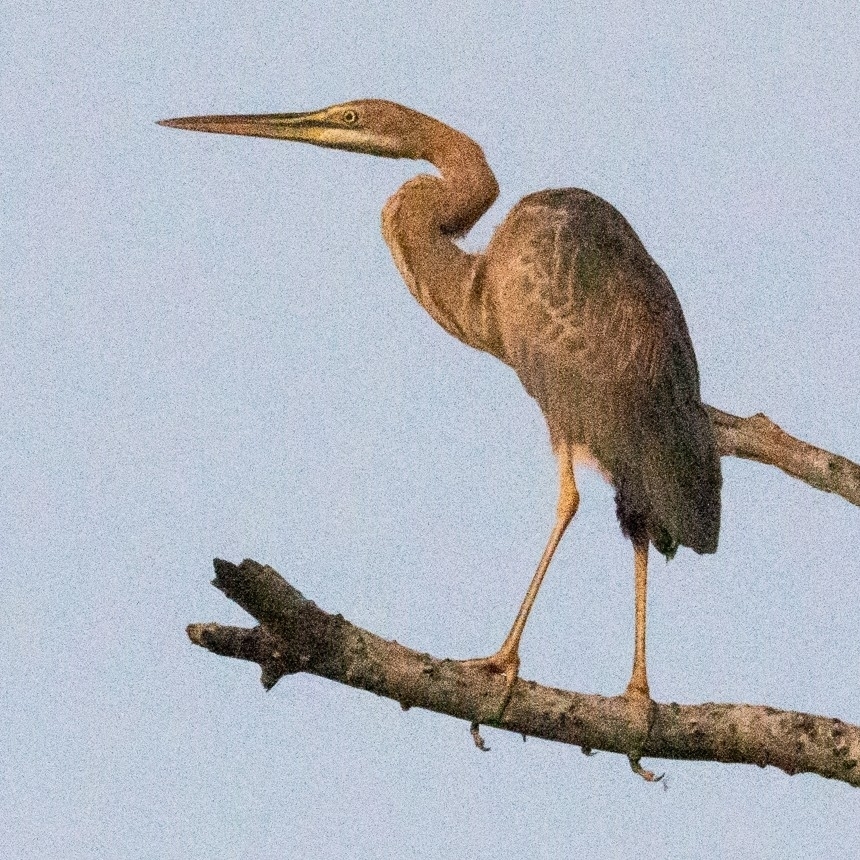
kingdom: Animalia
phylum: Chordata
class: Aves
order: Pelecaniformes
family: Ardeidae
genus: Ardea
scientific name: Ardea purpurea
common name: Purple heron
